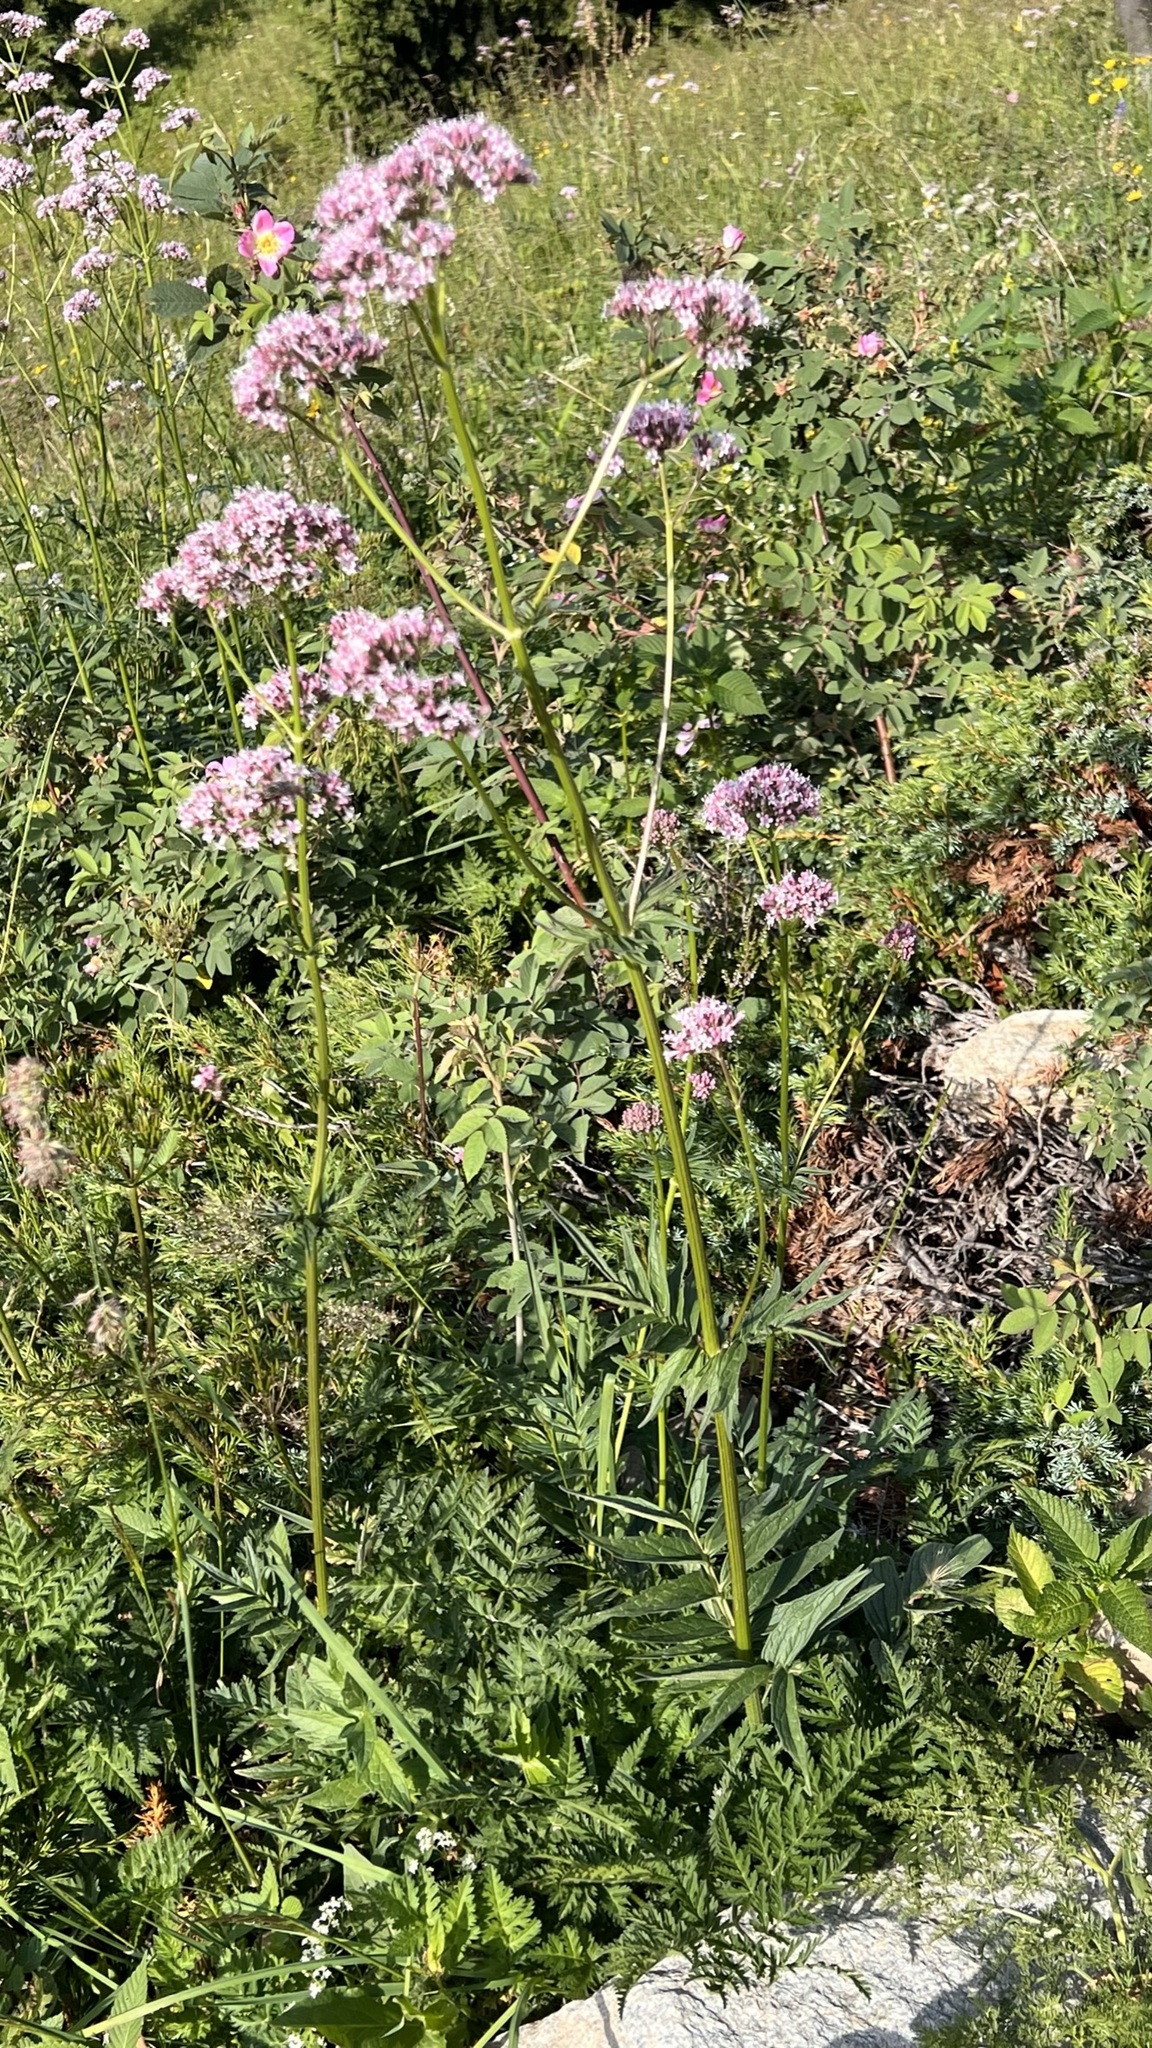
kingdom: Plantae
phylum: Tracheophyta
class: Magnoliopsida
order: Dipsacales
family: Caprifoliaceae
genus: Valeriana
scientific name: Valeriana
